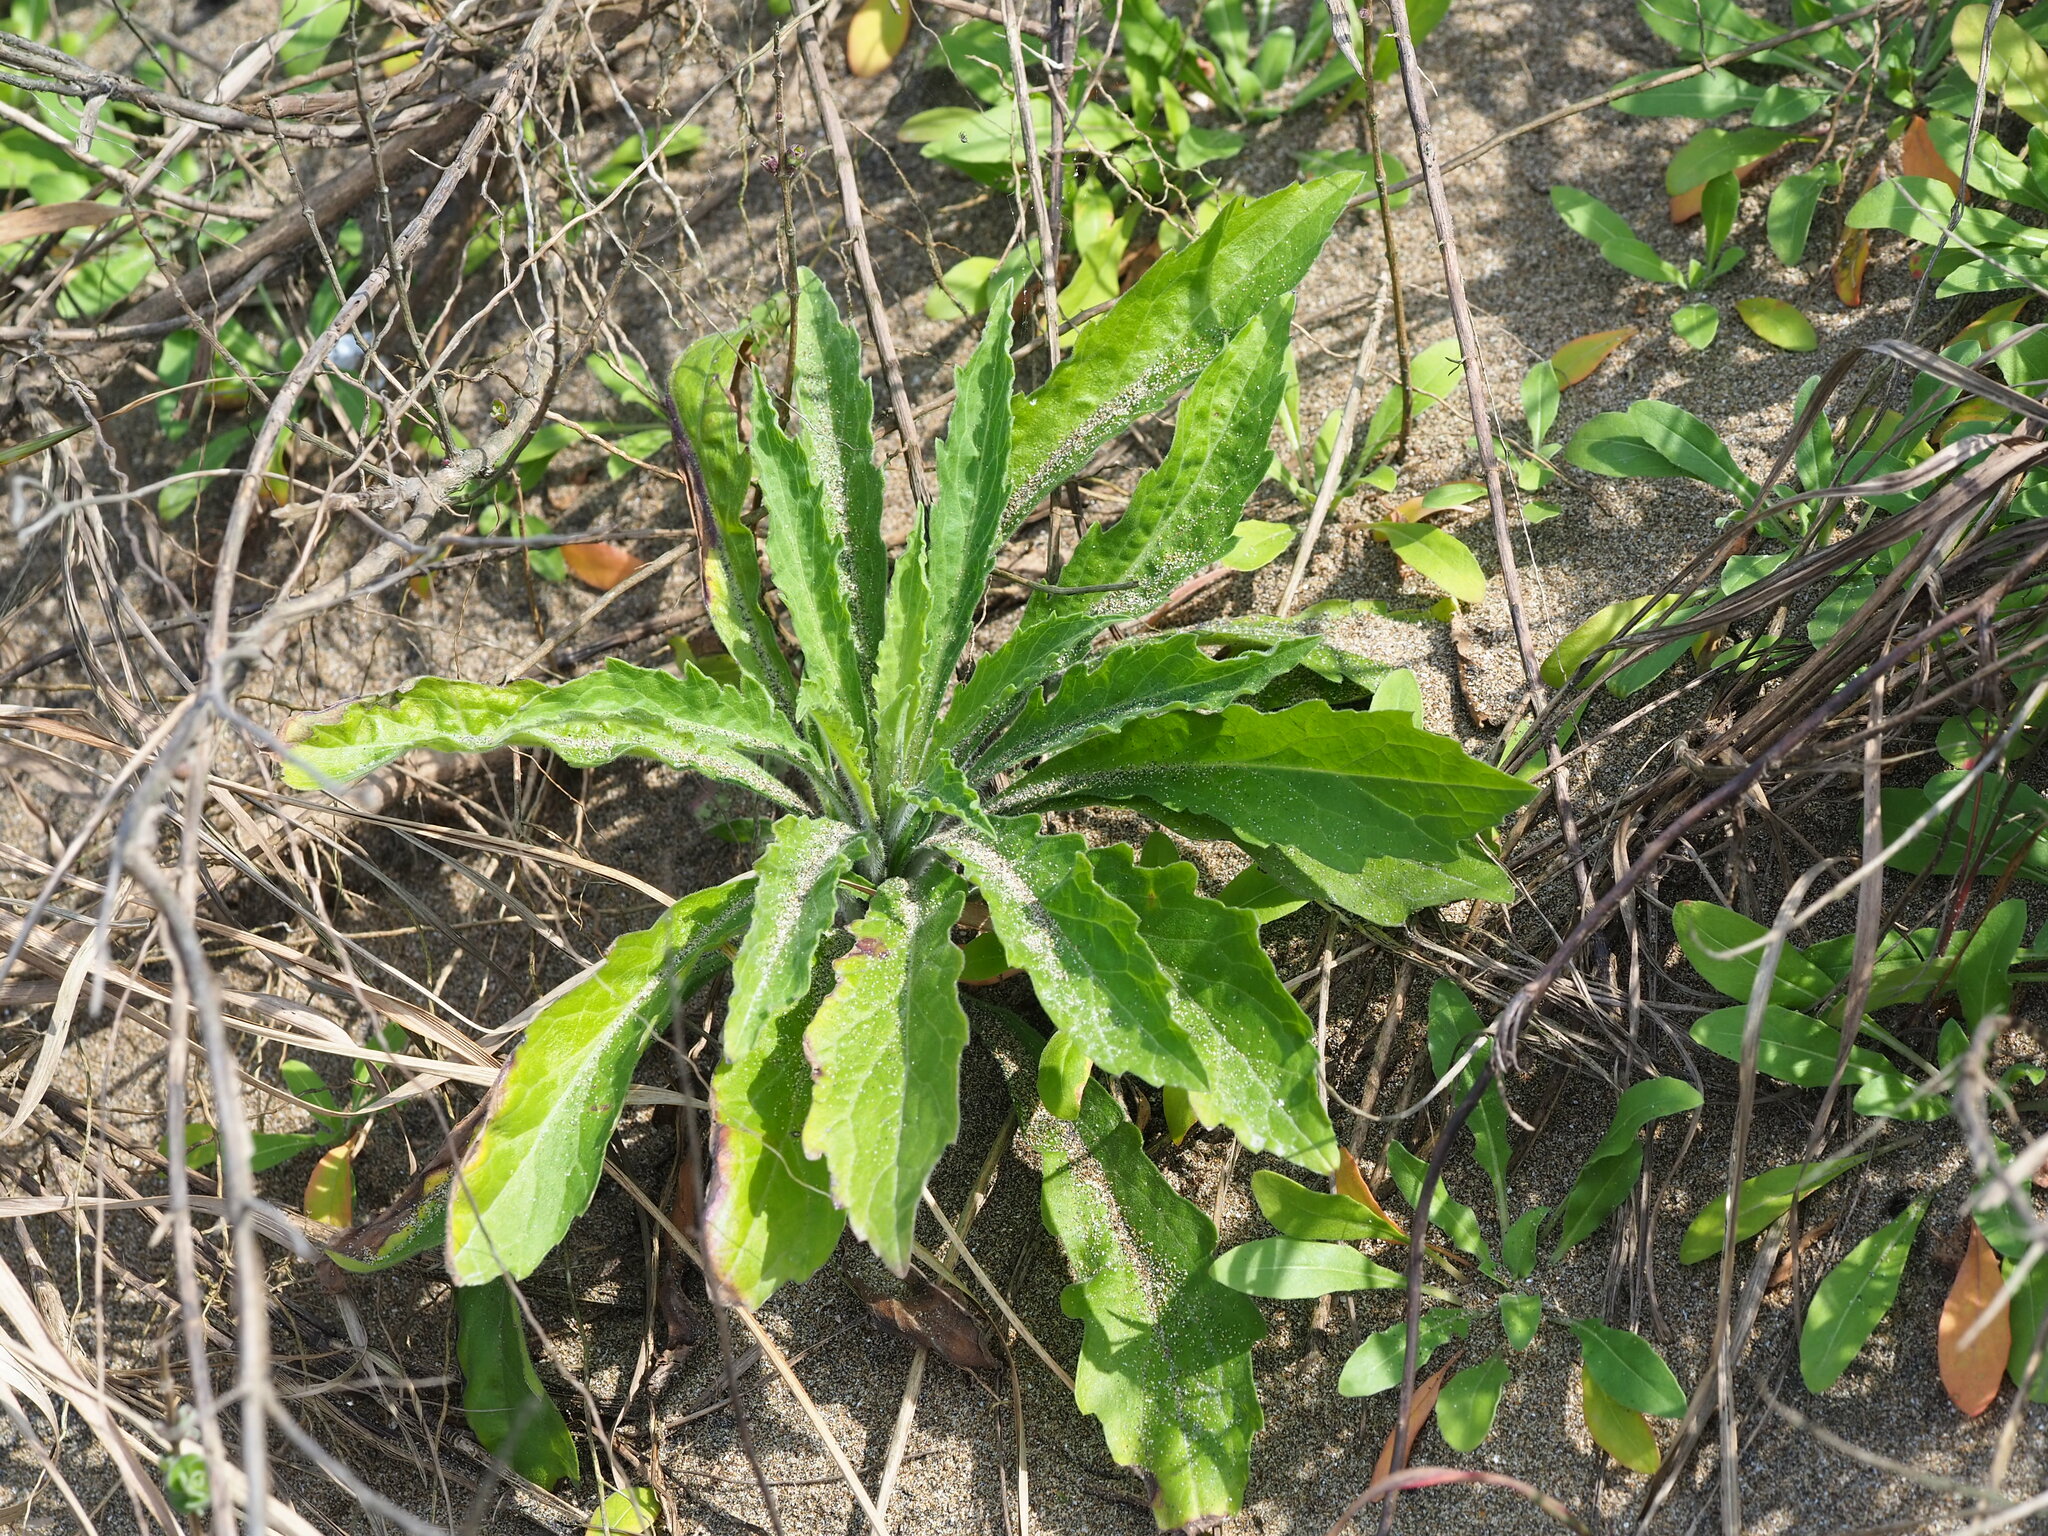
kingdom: Plantae
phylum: Tracheophyta
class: Magnoliopsida
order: Asterales
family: Asteraceae
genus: Erigeron
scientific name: Erigeron sumatrensis
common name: Daisy
